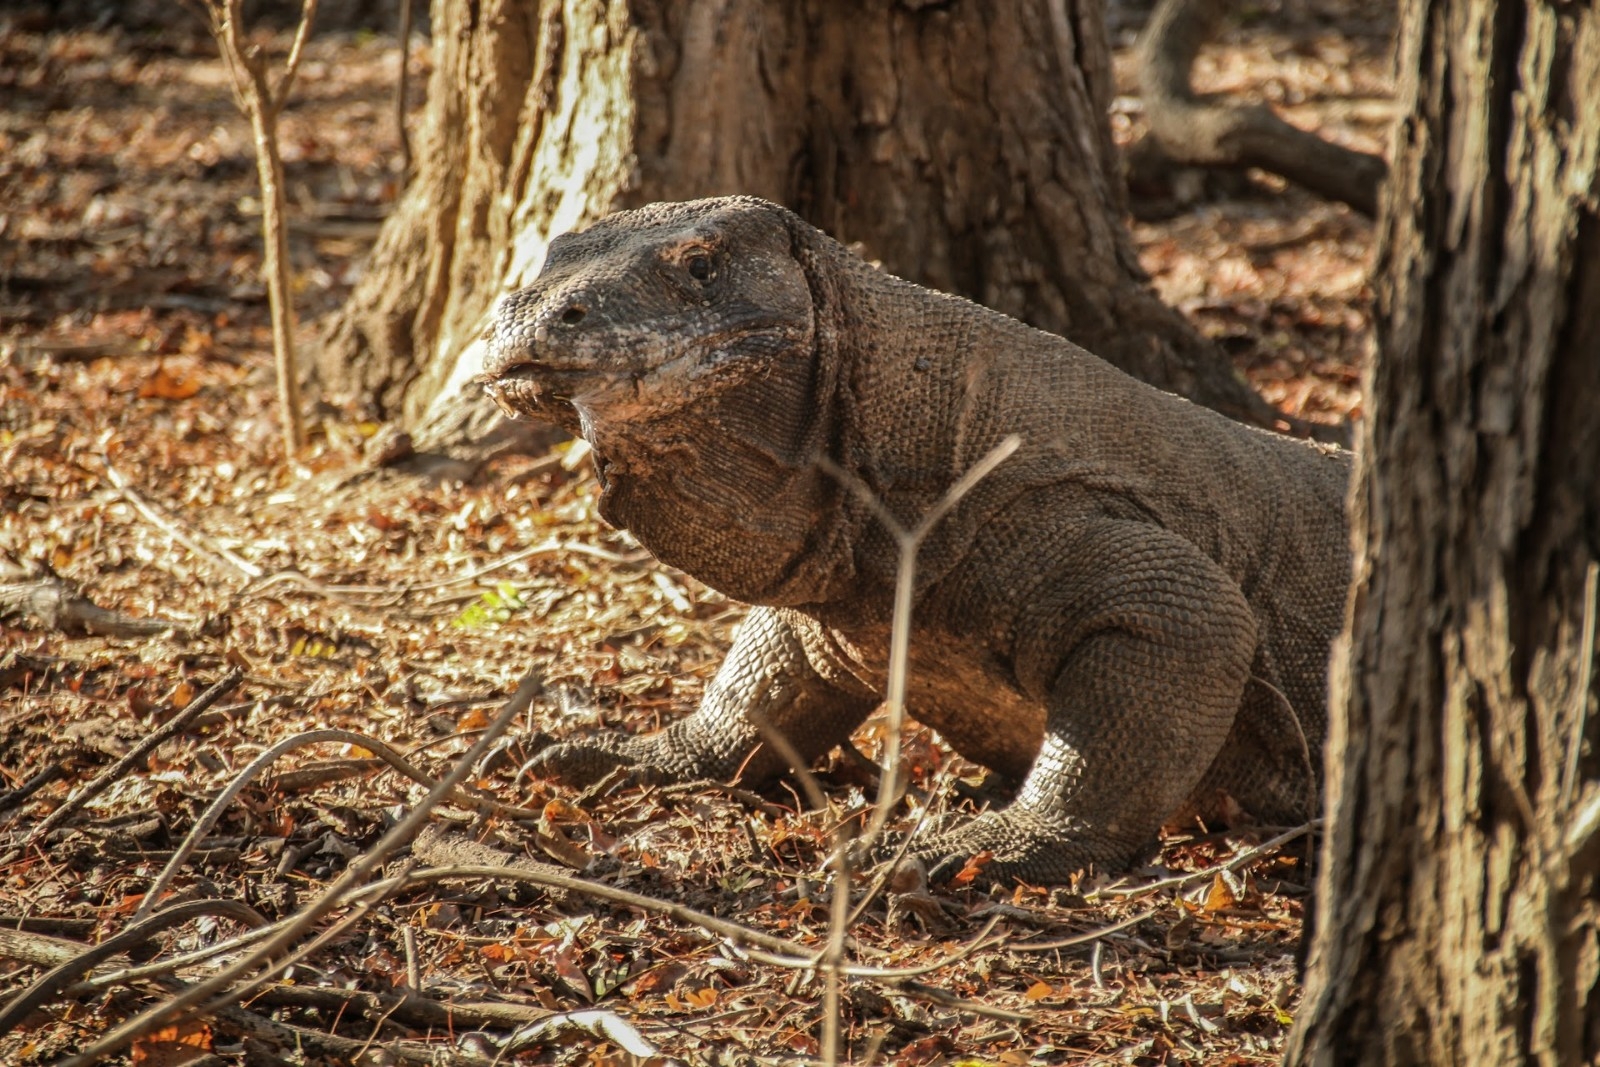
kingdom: Animalia
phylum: Chordata
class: Squamata
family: Varanidae
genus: Varanus
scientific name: Varanus komodoensis
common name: Komodo dragon
